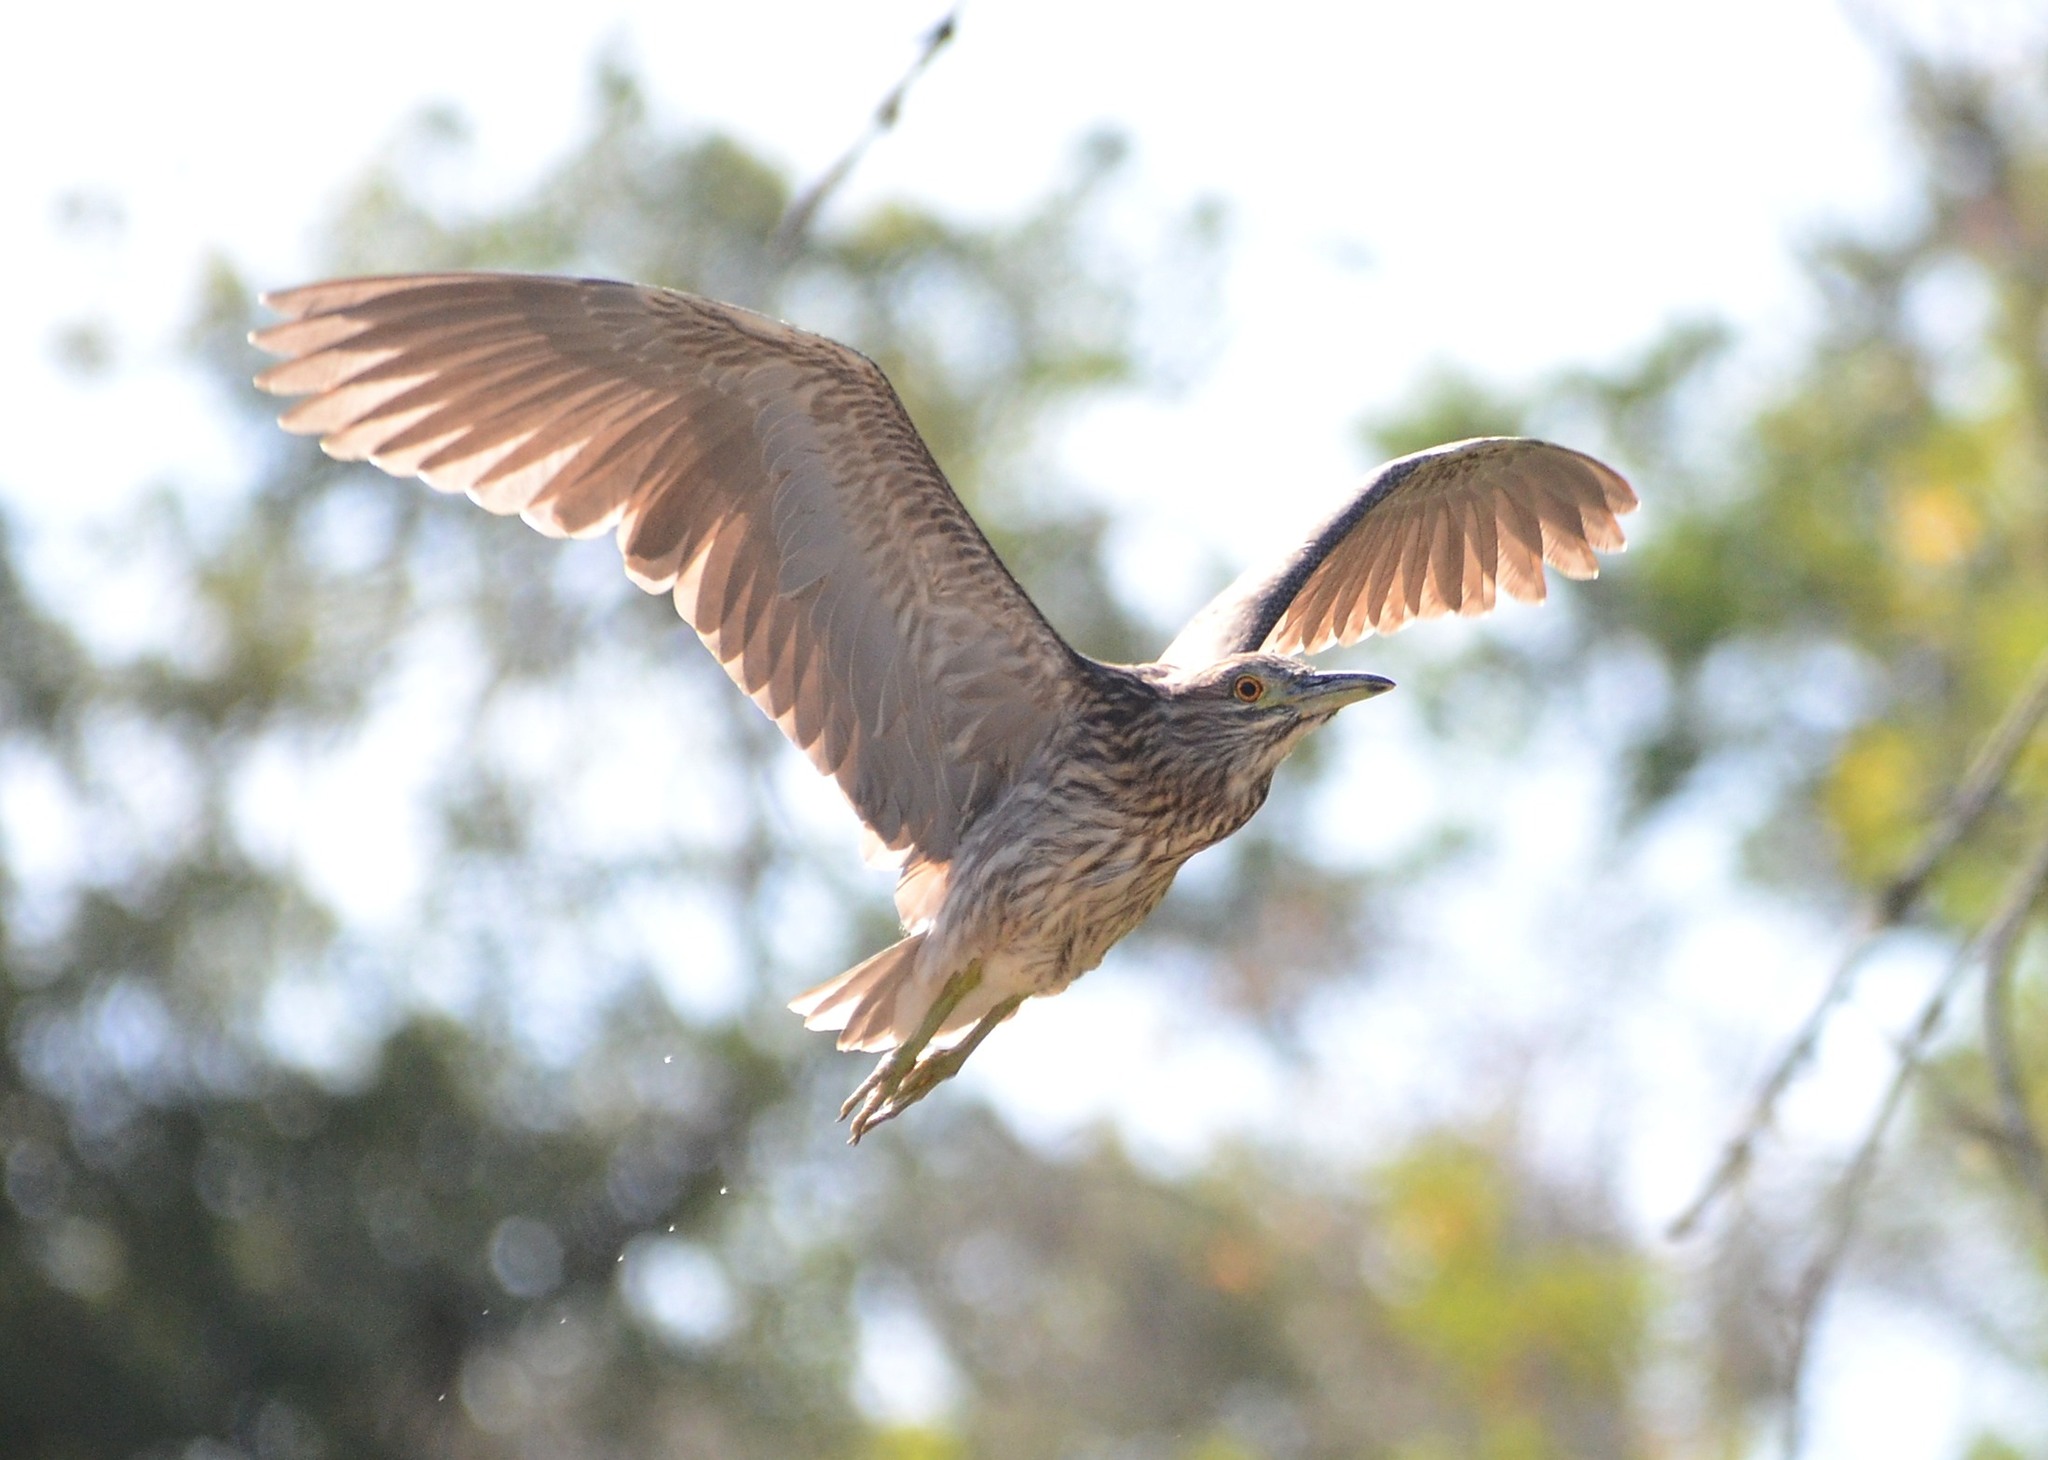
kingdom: Animalia
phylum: Chordata
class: Aves
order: Pelecaniformes
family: Ardeidae
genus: Nycticorax
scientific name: Nycticorax nycticorax
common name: Black-crowned night heron
